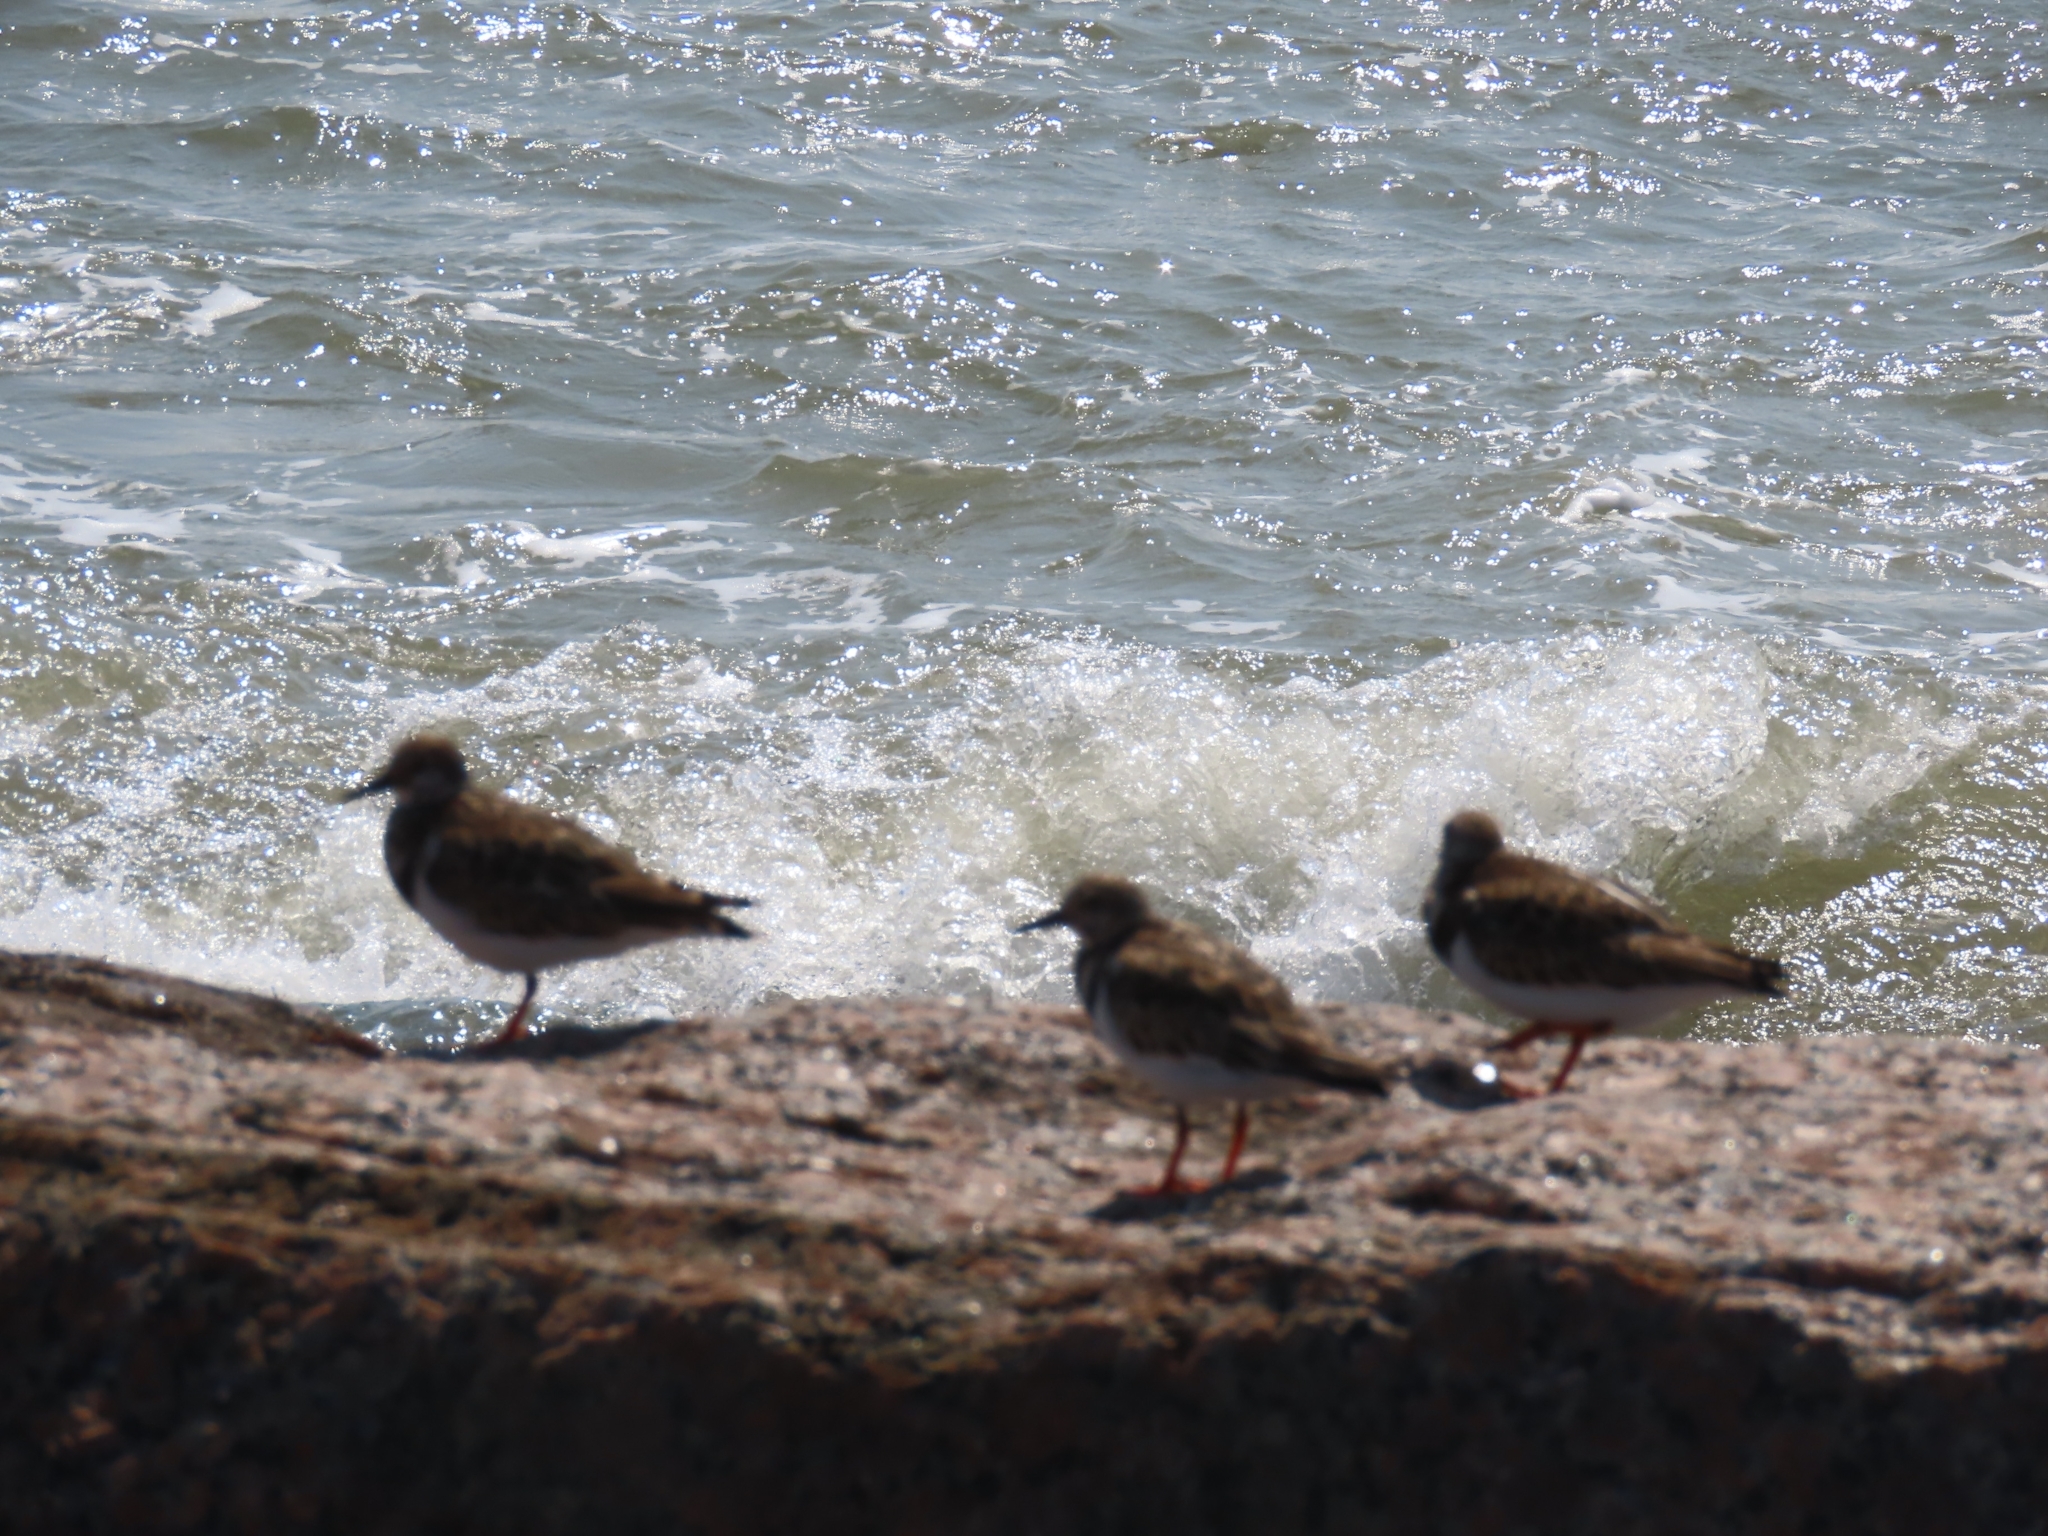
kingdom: Animalia
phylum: Chordata
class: Aves
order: Charadriiformes
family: Scolopacidae
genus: Arenaria
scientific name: Arenaria interpres
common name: Ruddy turnstone
